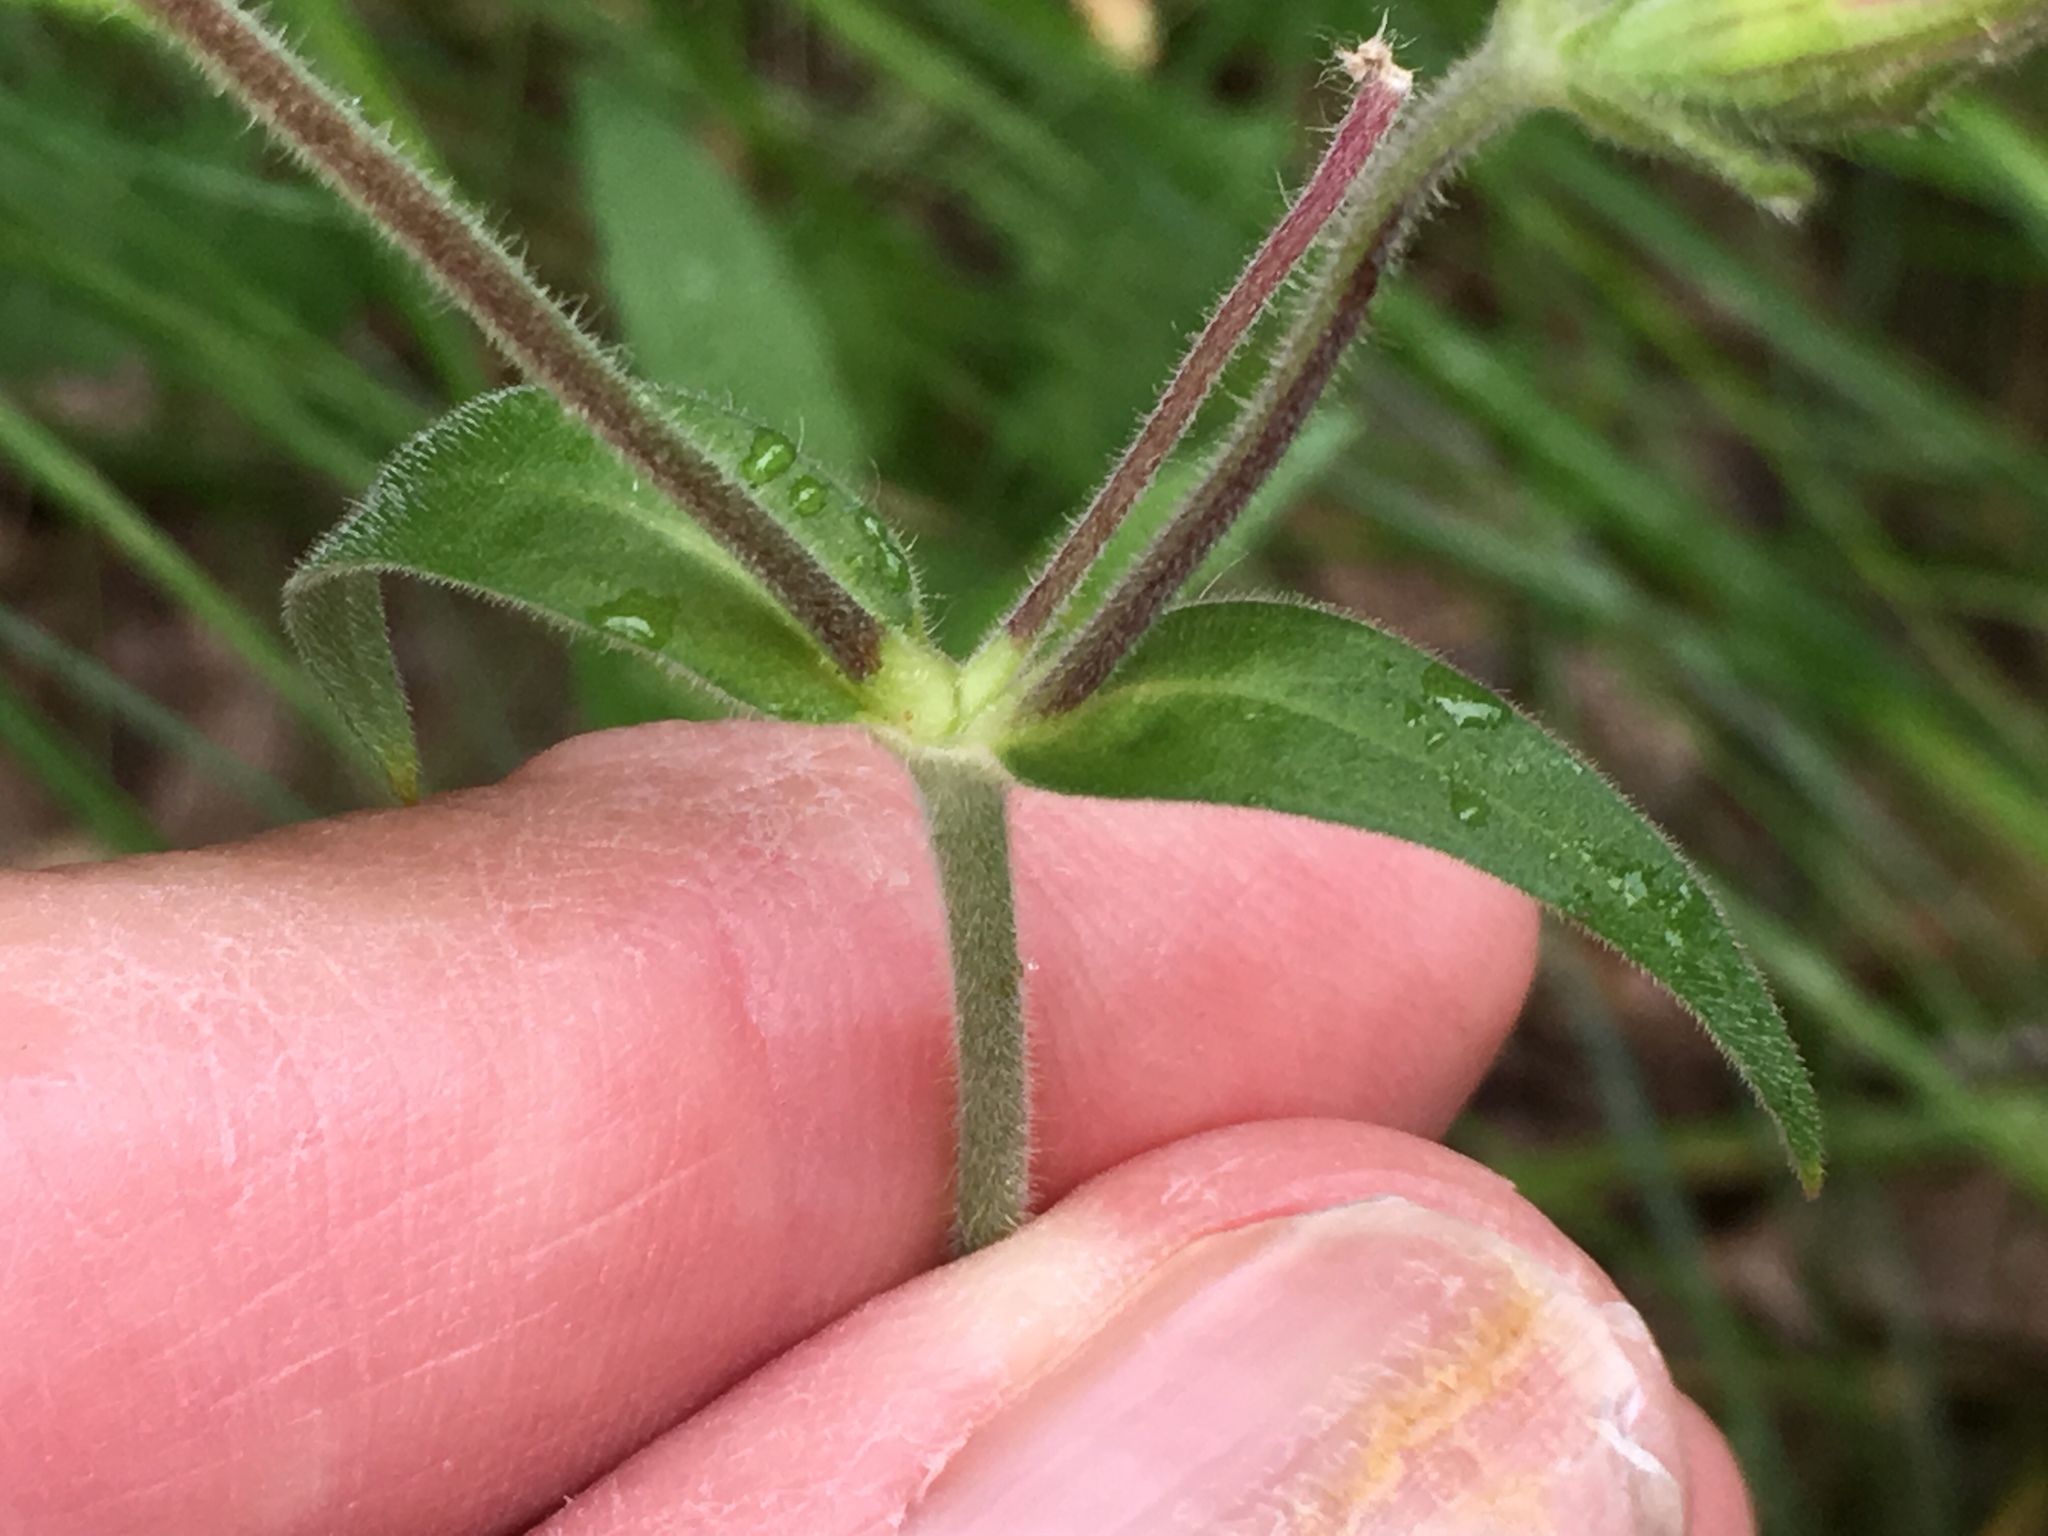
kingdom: Plantae
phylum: Tracheophyta
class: Magnoliopsida
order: Caryophyllales
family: Caryophyllaceae
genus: Silene
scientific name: Silene latifolia
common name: White campion
